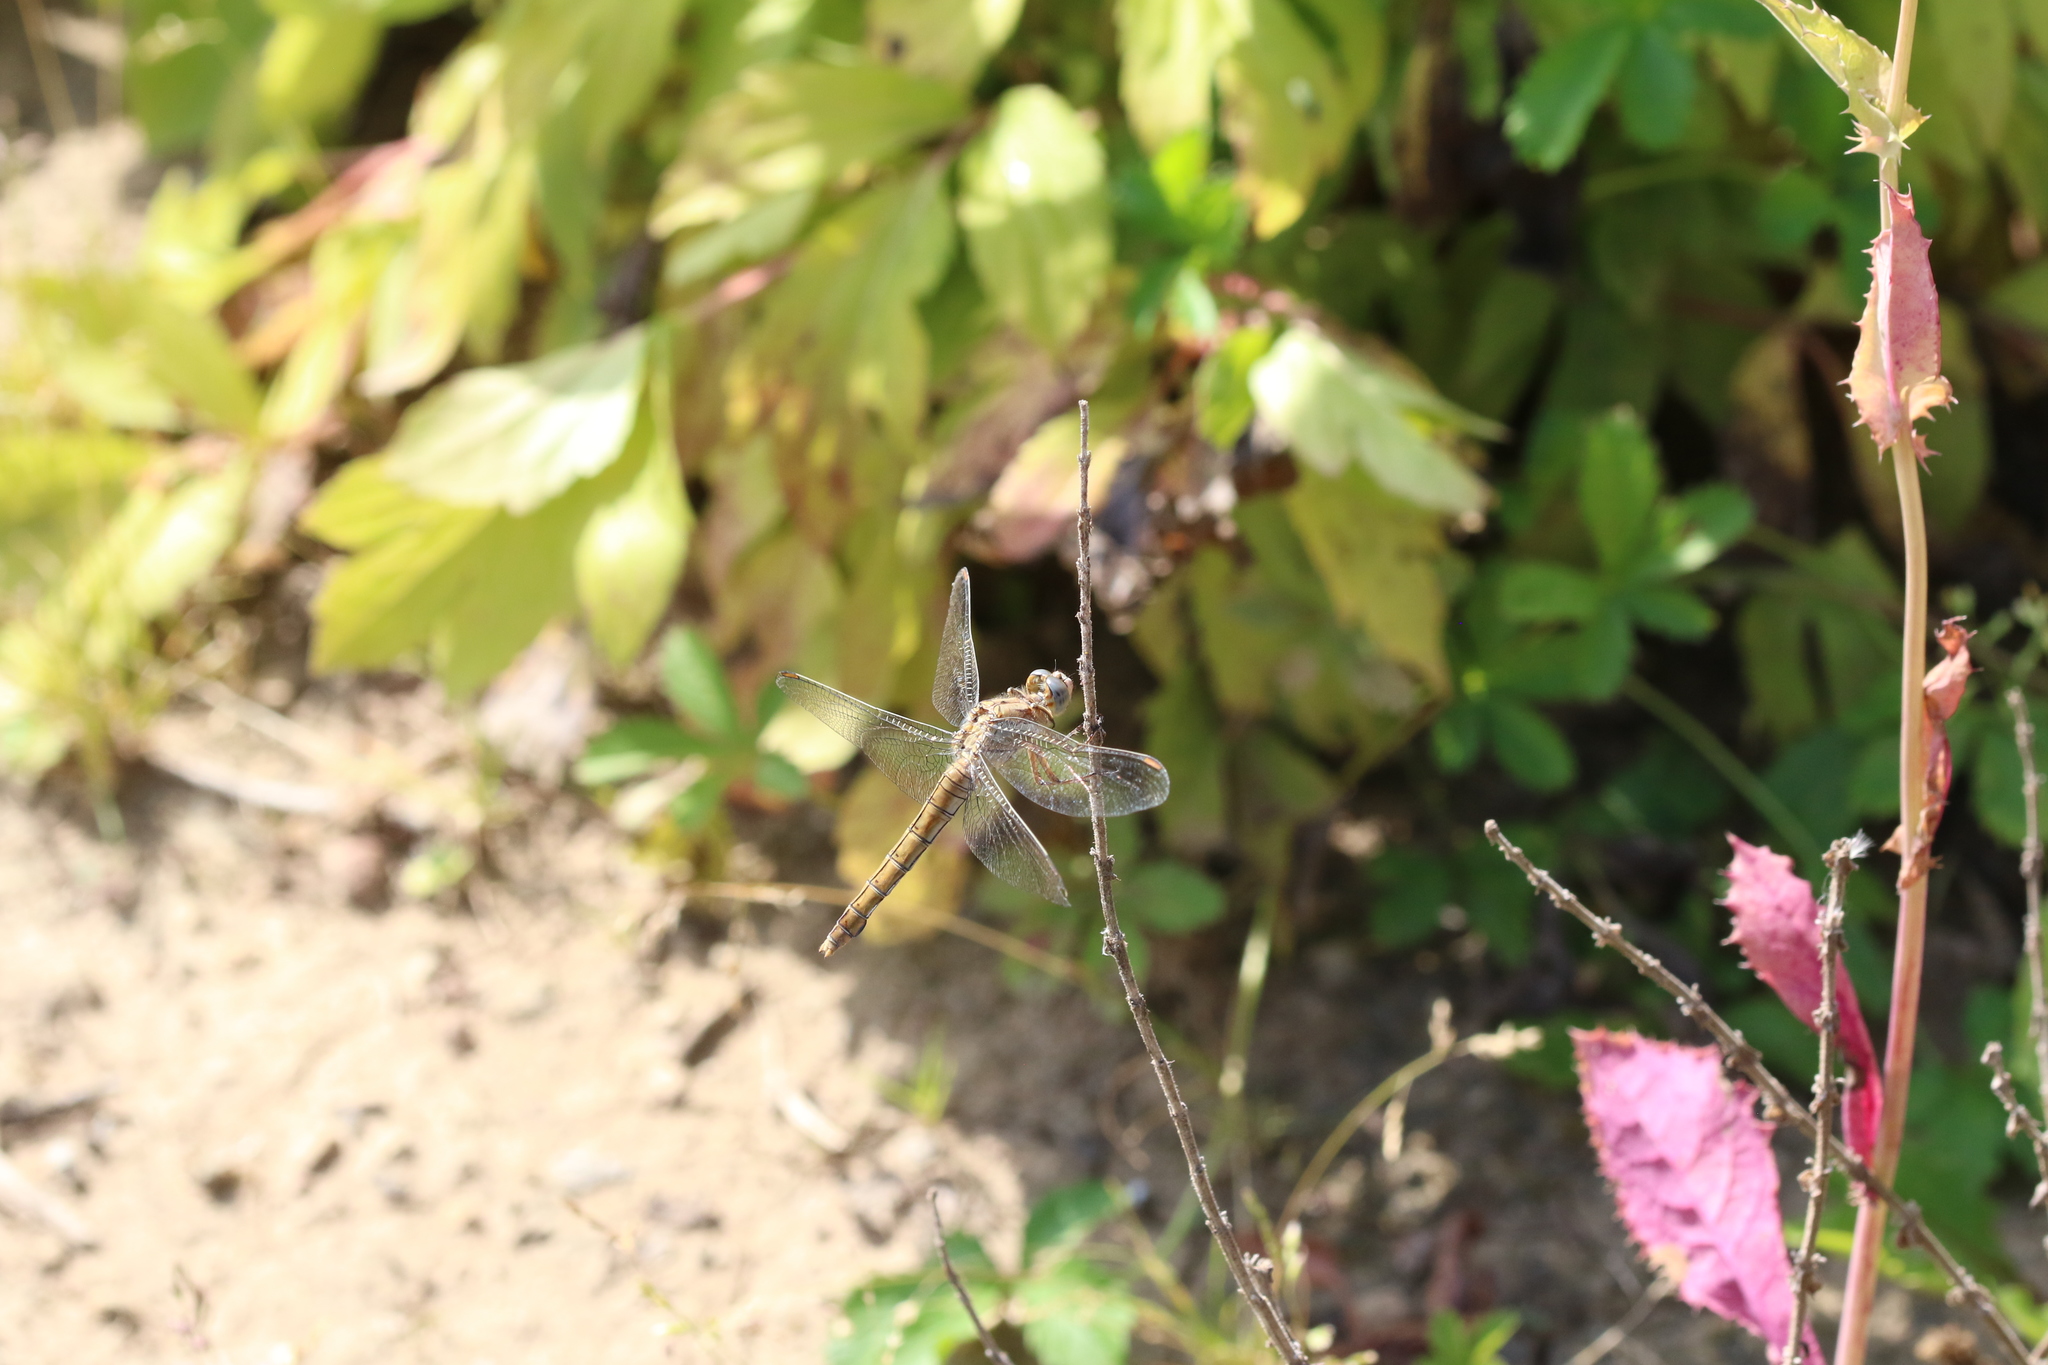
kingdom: Animalia
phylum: Arthropoda
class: Insecta
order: Odonata
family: Libellulidae
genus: Orthetrum
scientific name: Orthetrum brunneum
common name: Southern skimmer
